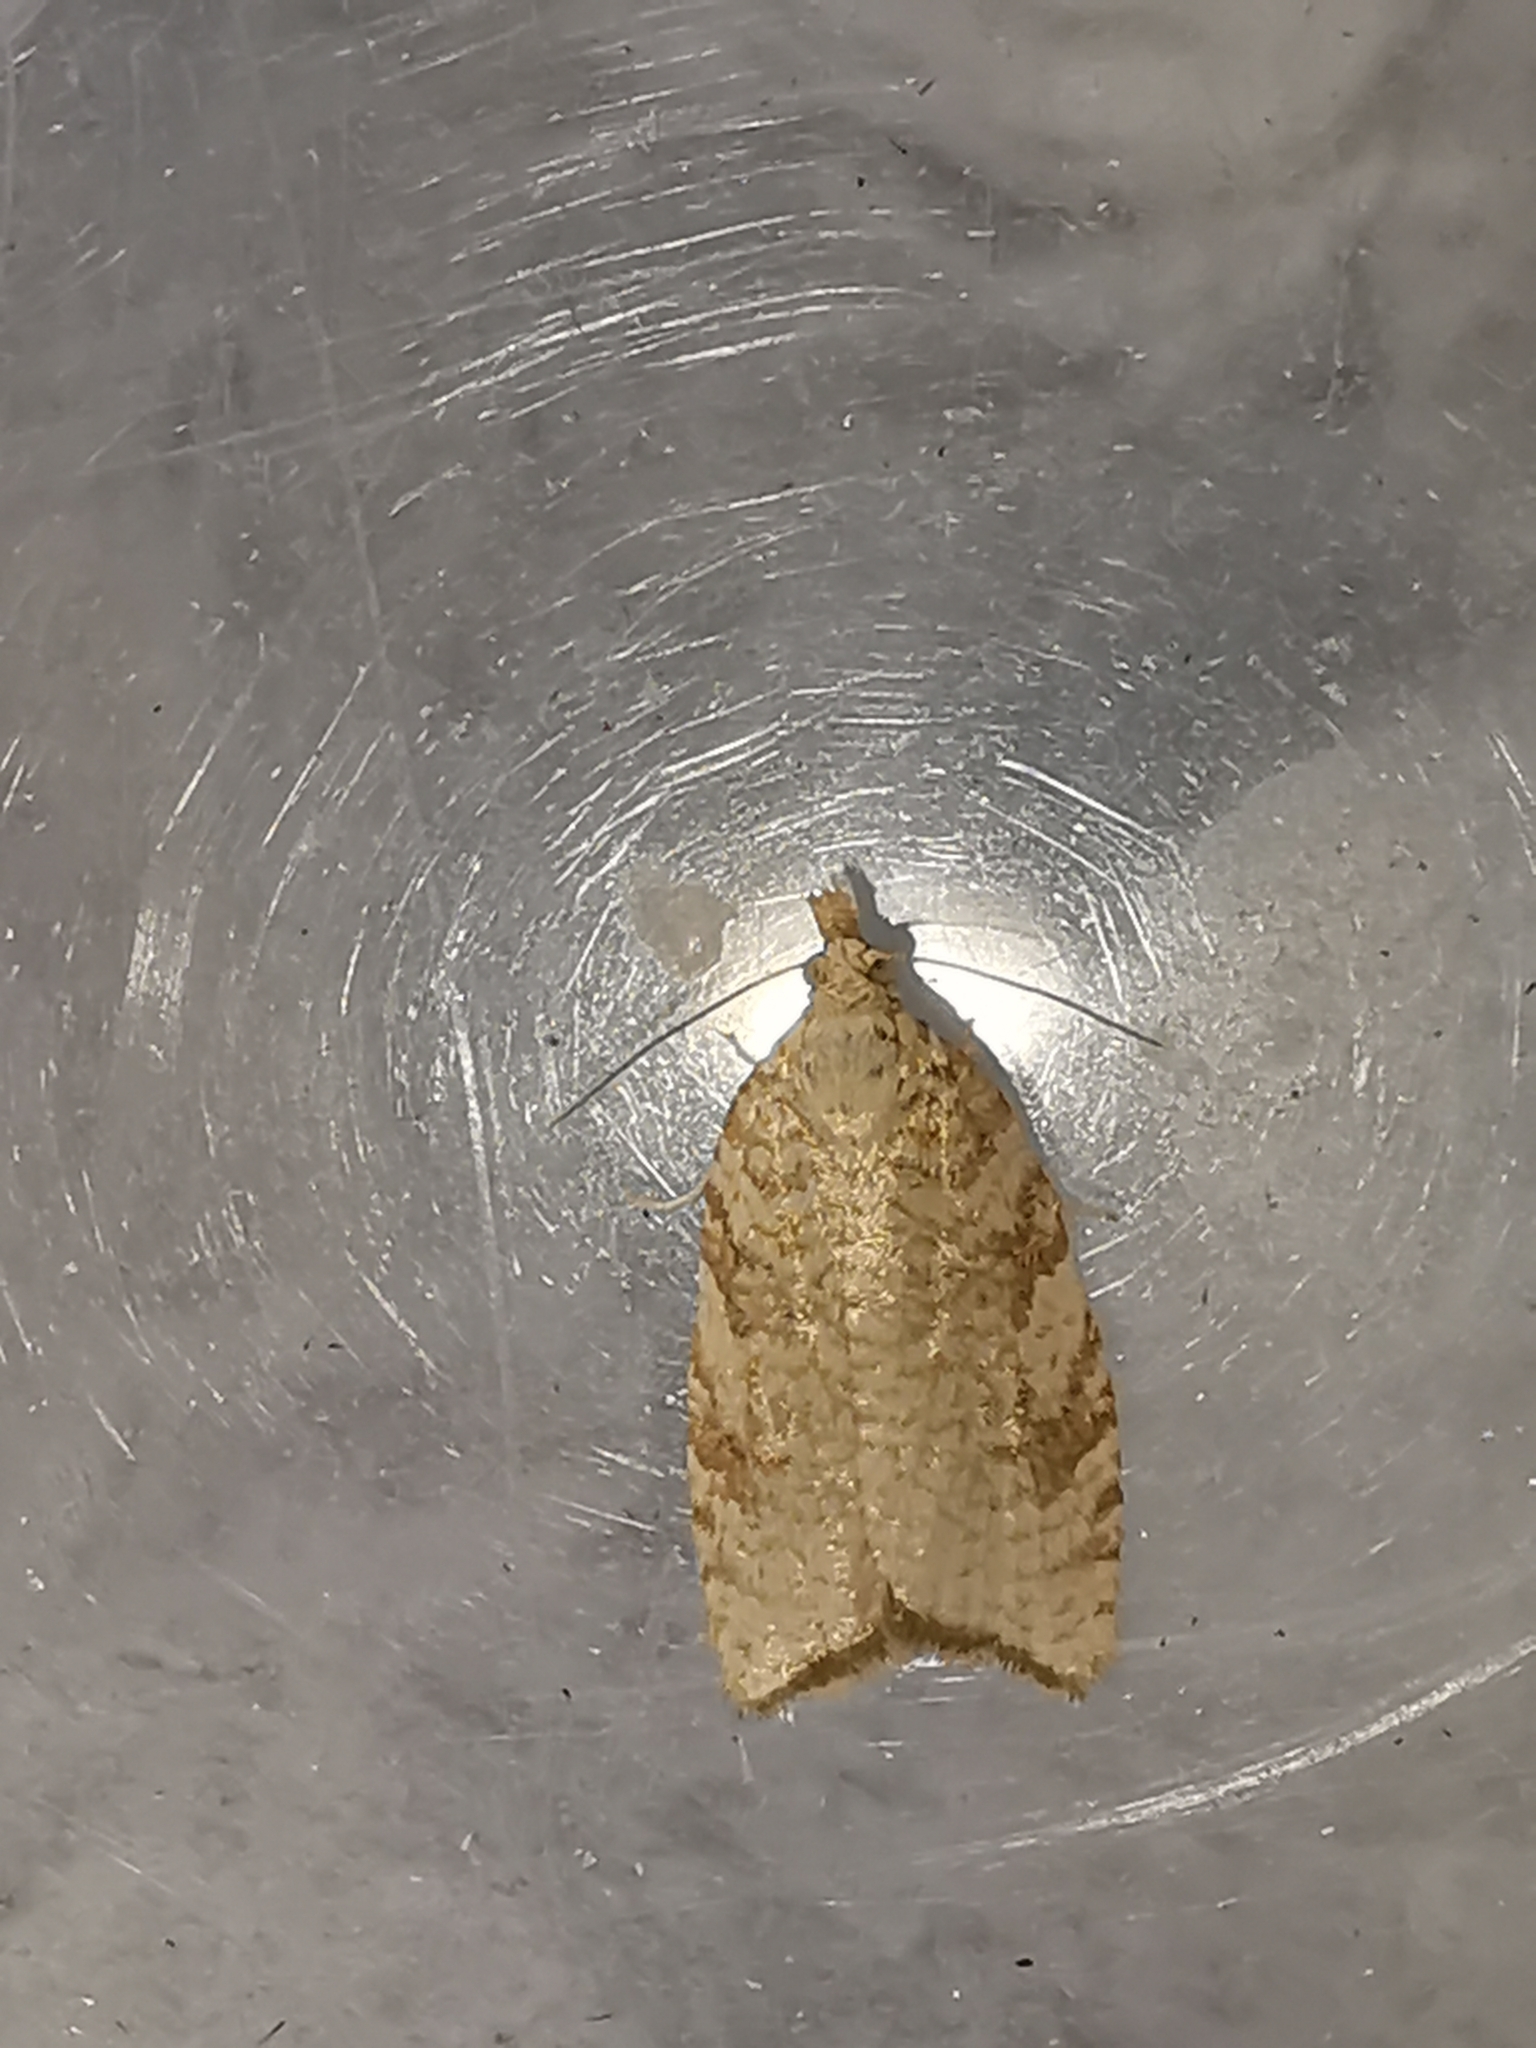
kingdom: Animalia
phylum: Arthropoda
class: Insecta
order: Lepidoptera
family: Tortricidae
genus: Aleimma
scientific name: Aleimma loeflingiana
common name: Yellow oak button
